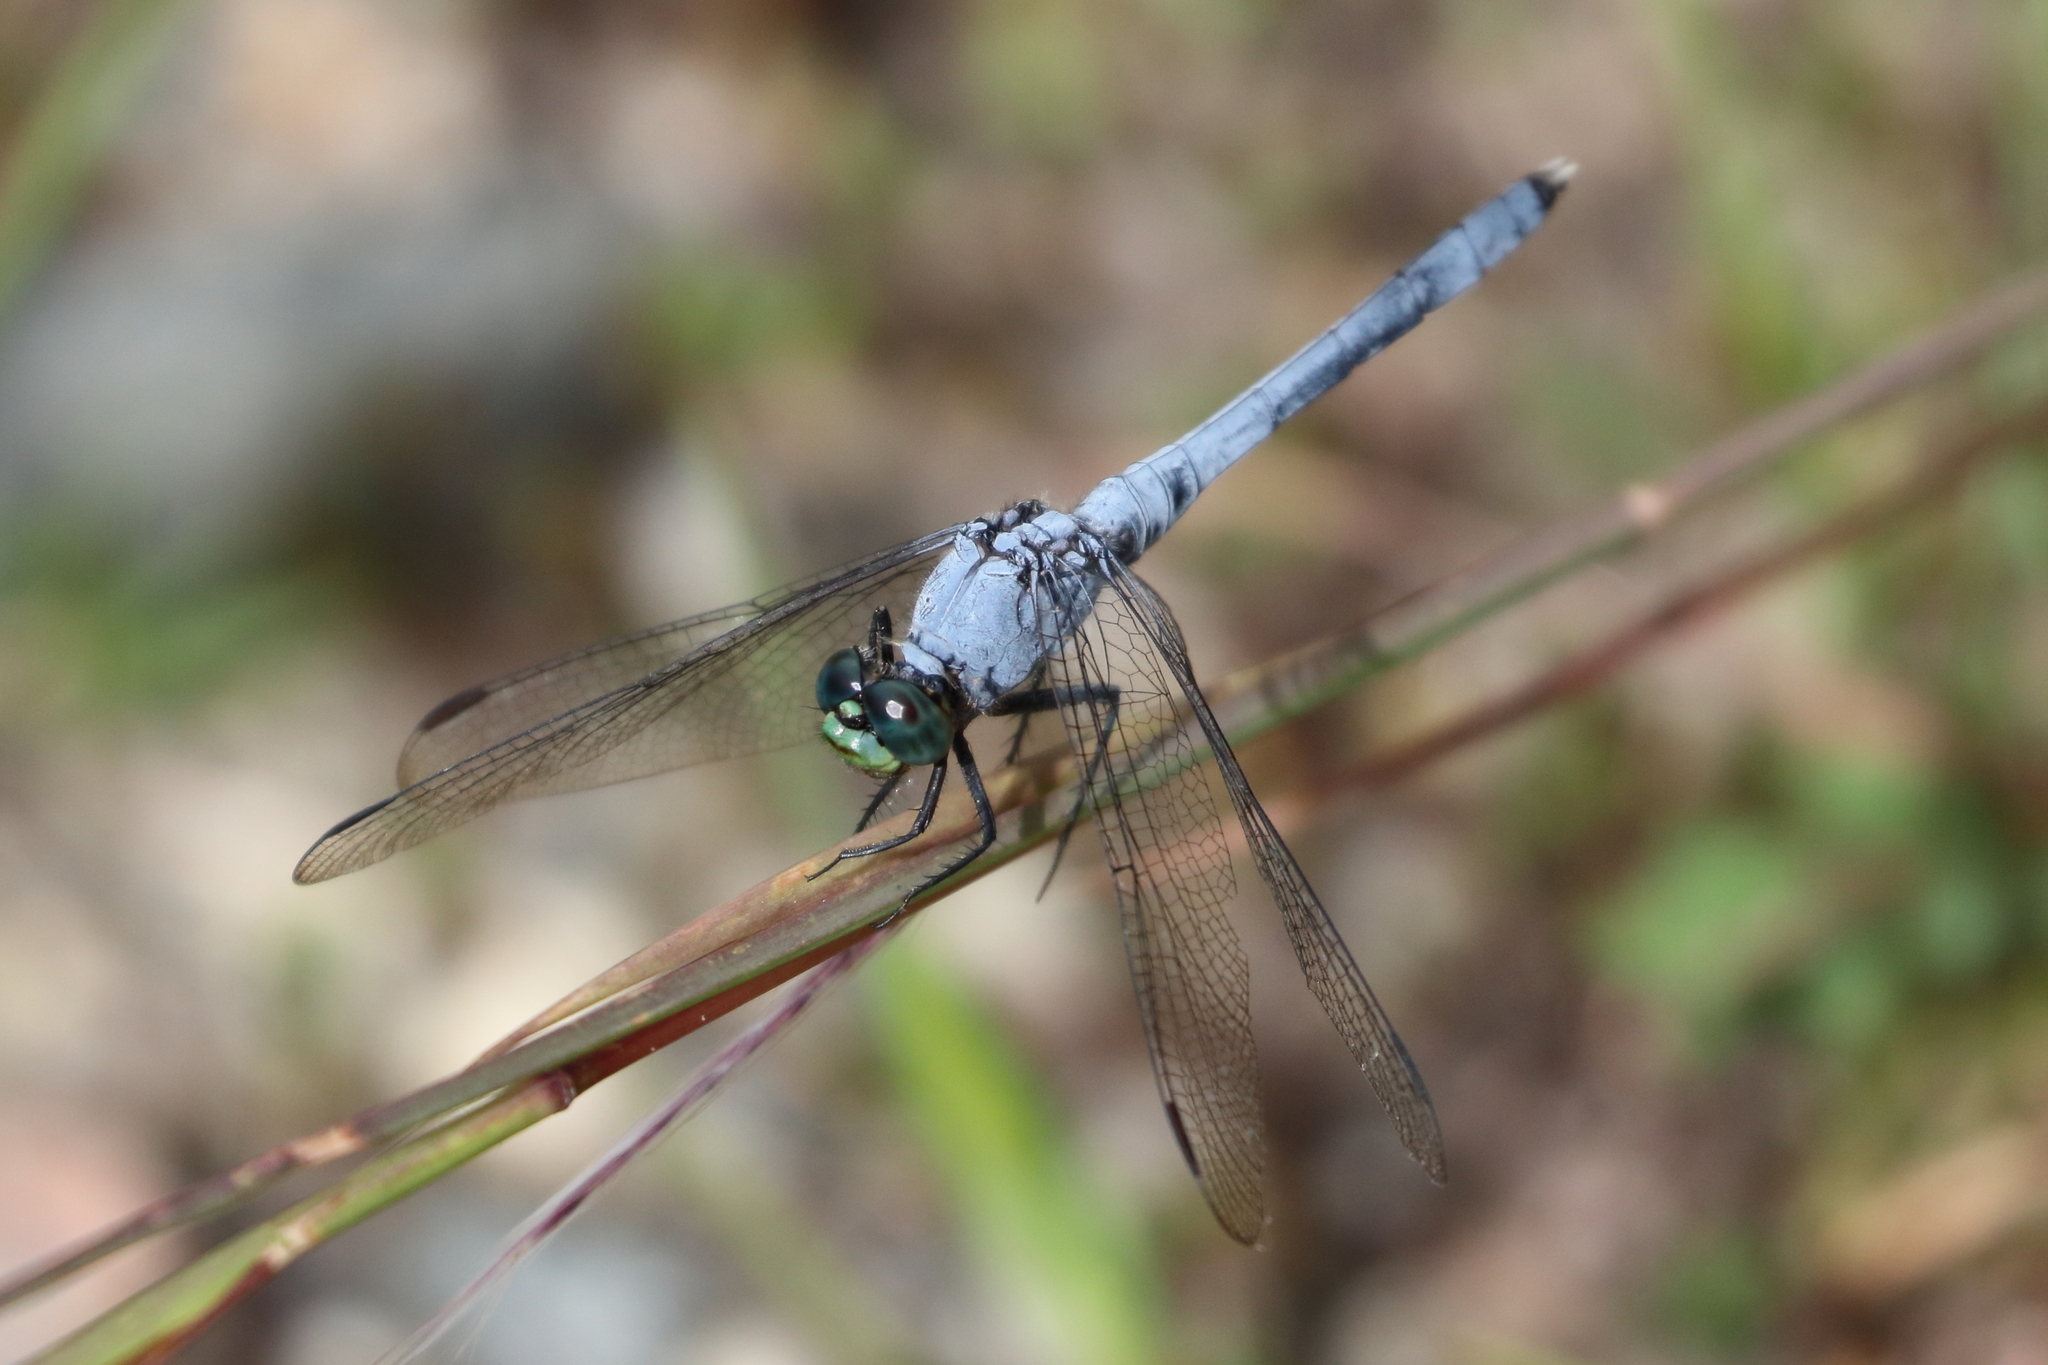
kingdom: Animalia
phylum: Arthropoda
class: Insecta
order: Odonata
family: Libellulidae
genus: Erythemis
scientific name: Erythemis simplicicollis
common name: Eastern pondhawk
